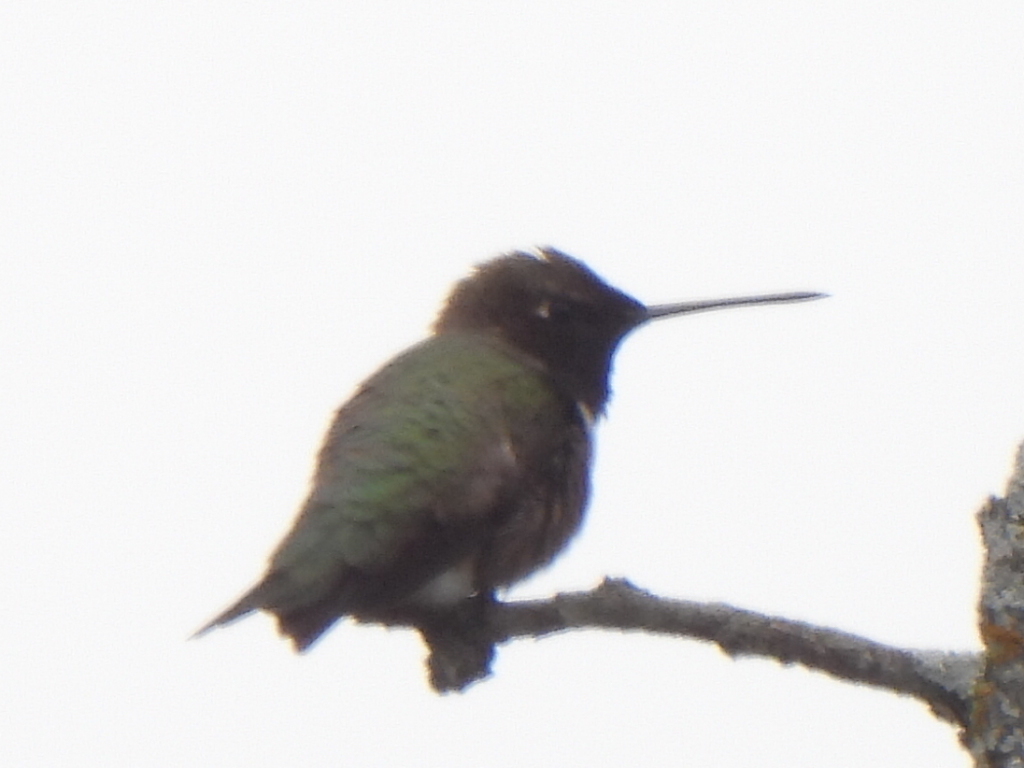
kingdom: Animalia
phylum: Chordata
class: Aves
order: Apodiformes
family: Trochilidae
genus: Archilochus
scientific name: Archilochus alexandri
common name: Black-chinned hummingbird
